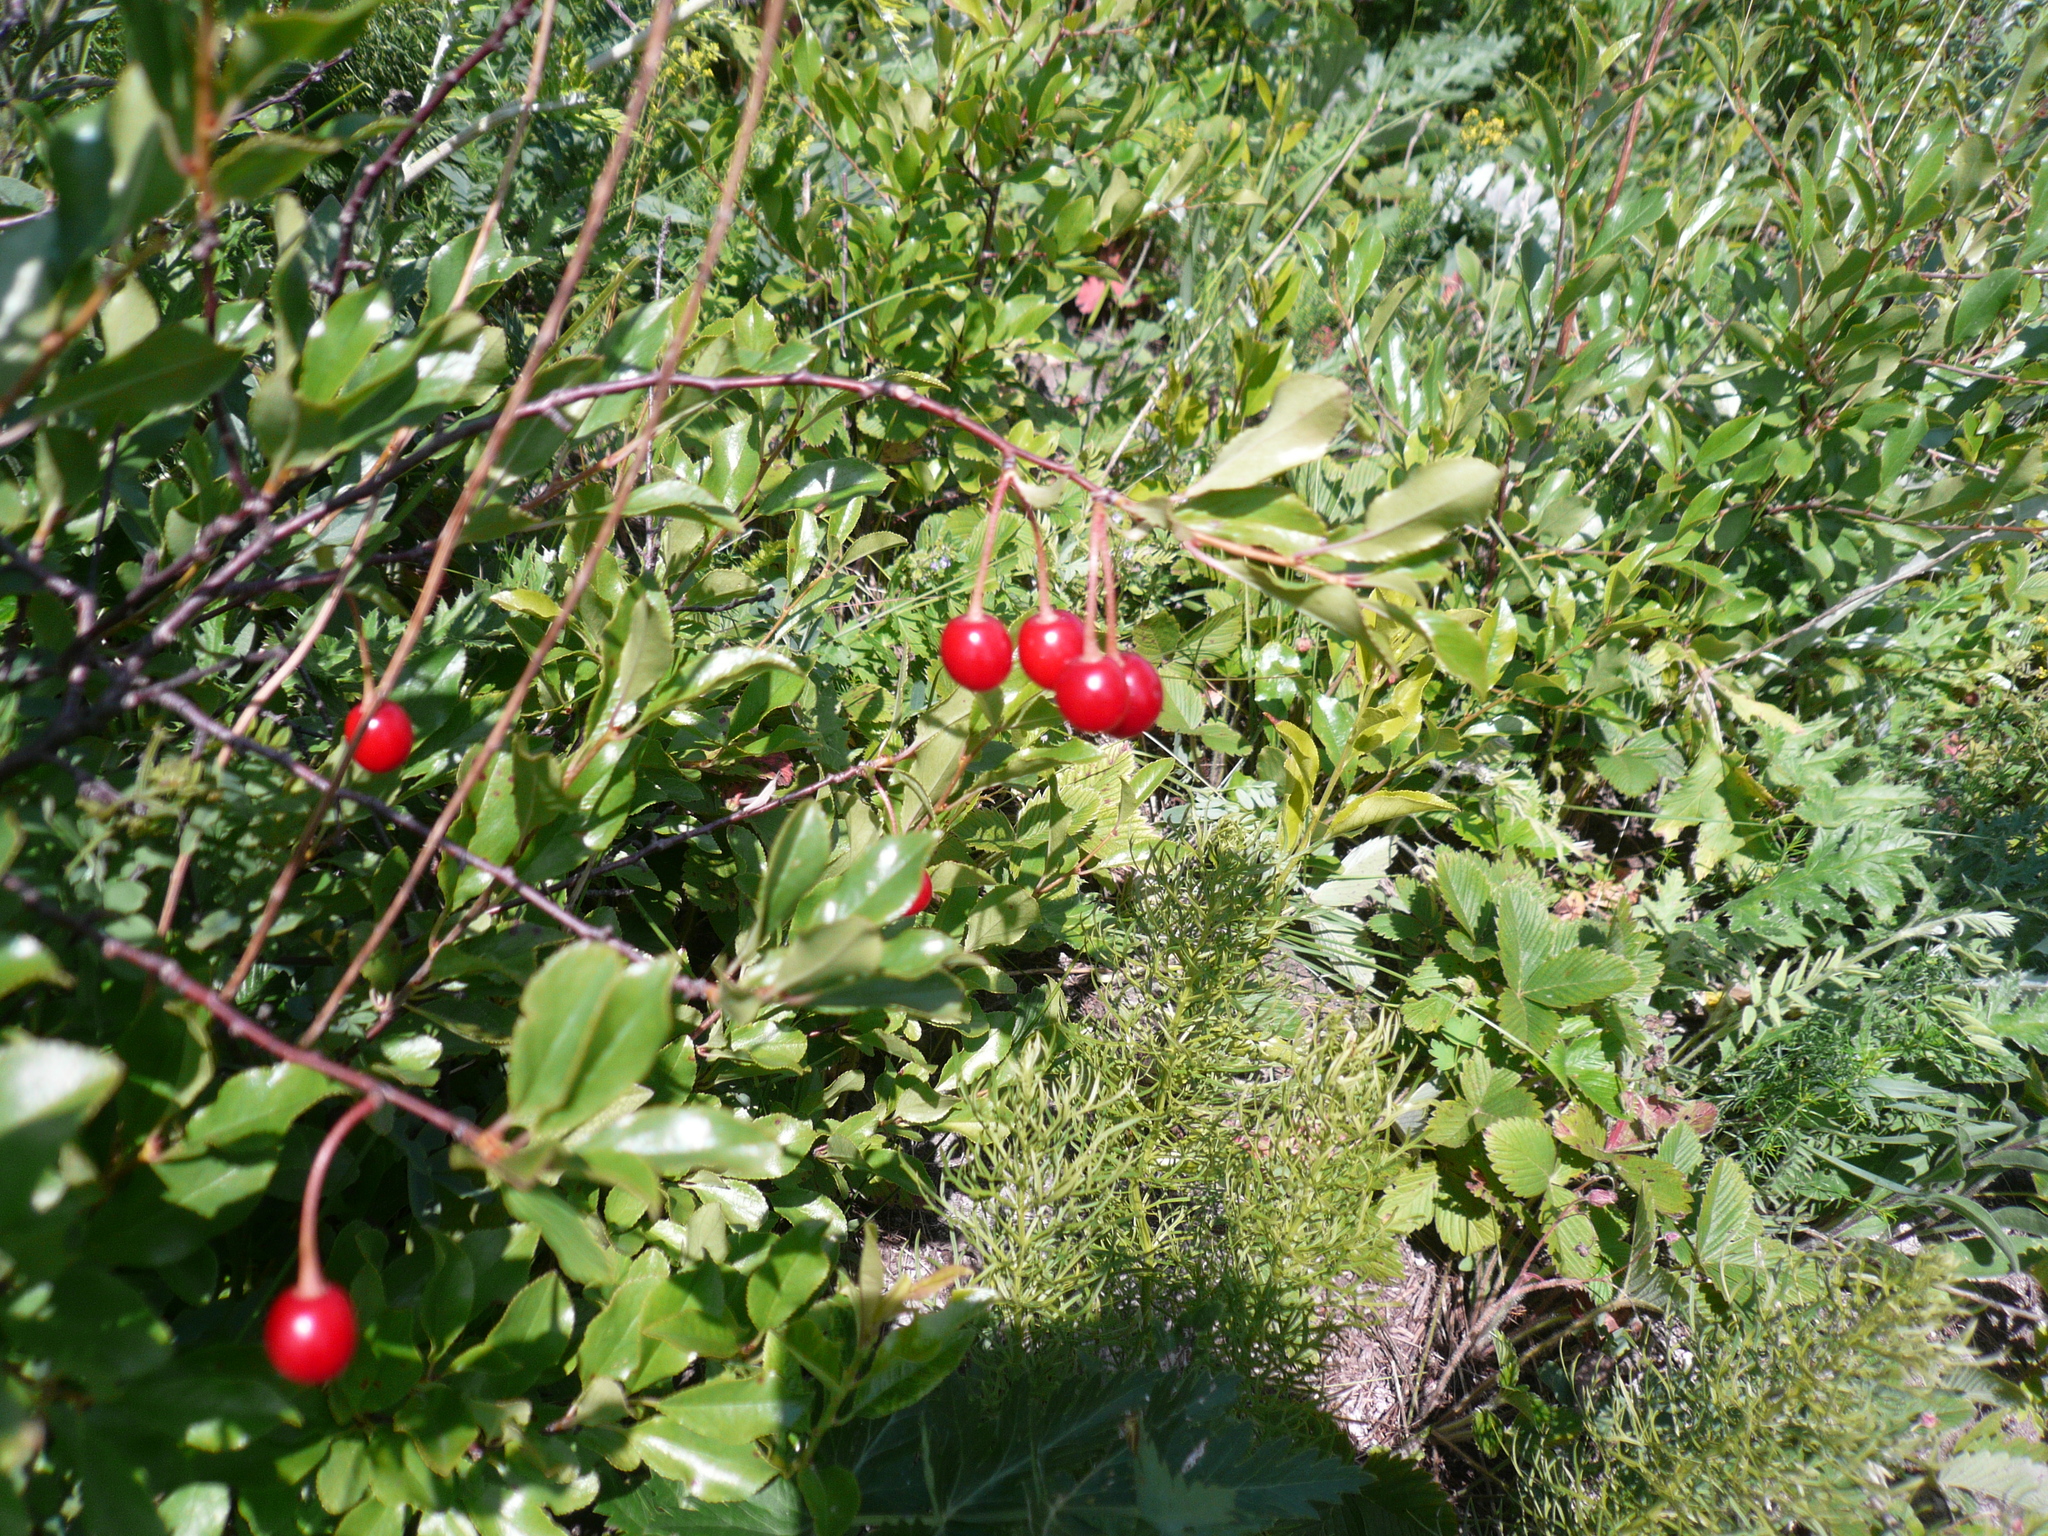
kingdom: Plantae
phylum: Tracheophyta
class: Magnoliopsida
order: Rosales
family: Rosaceae
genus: Prunus
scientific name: Prunus fruticosa
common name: European dwarf cherry
